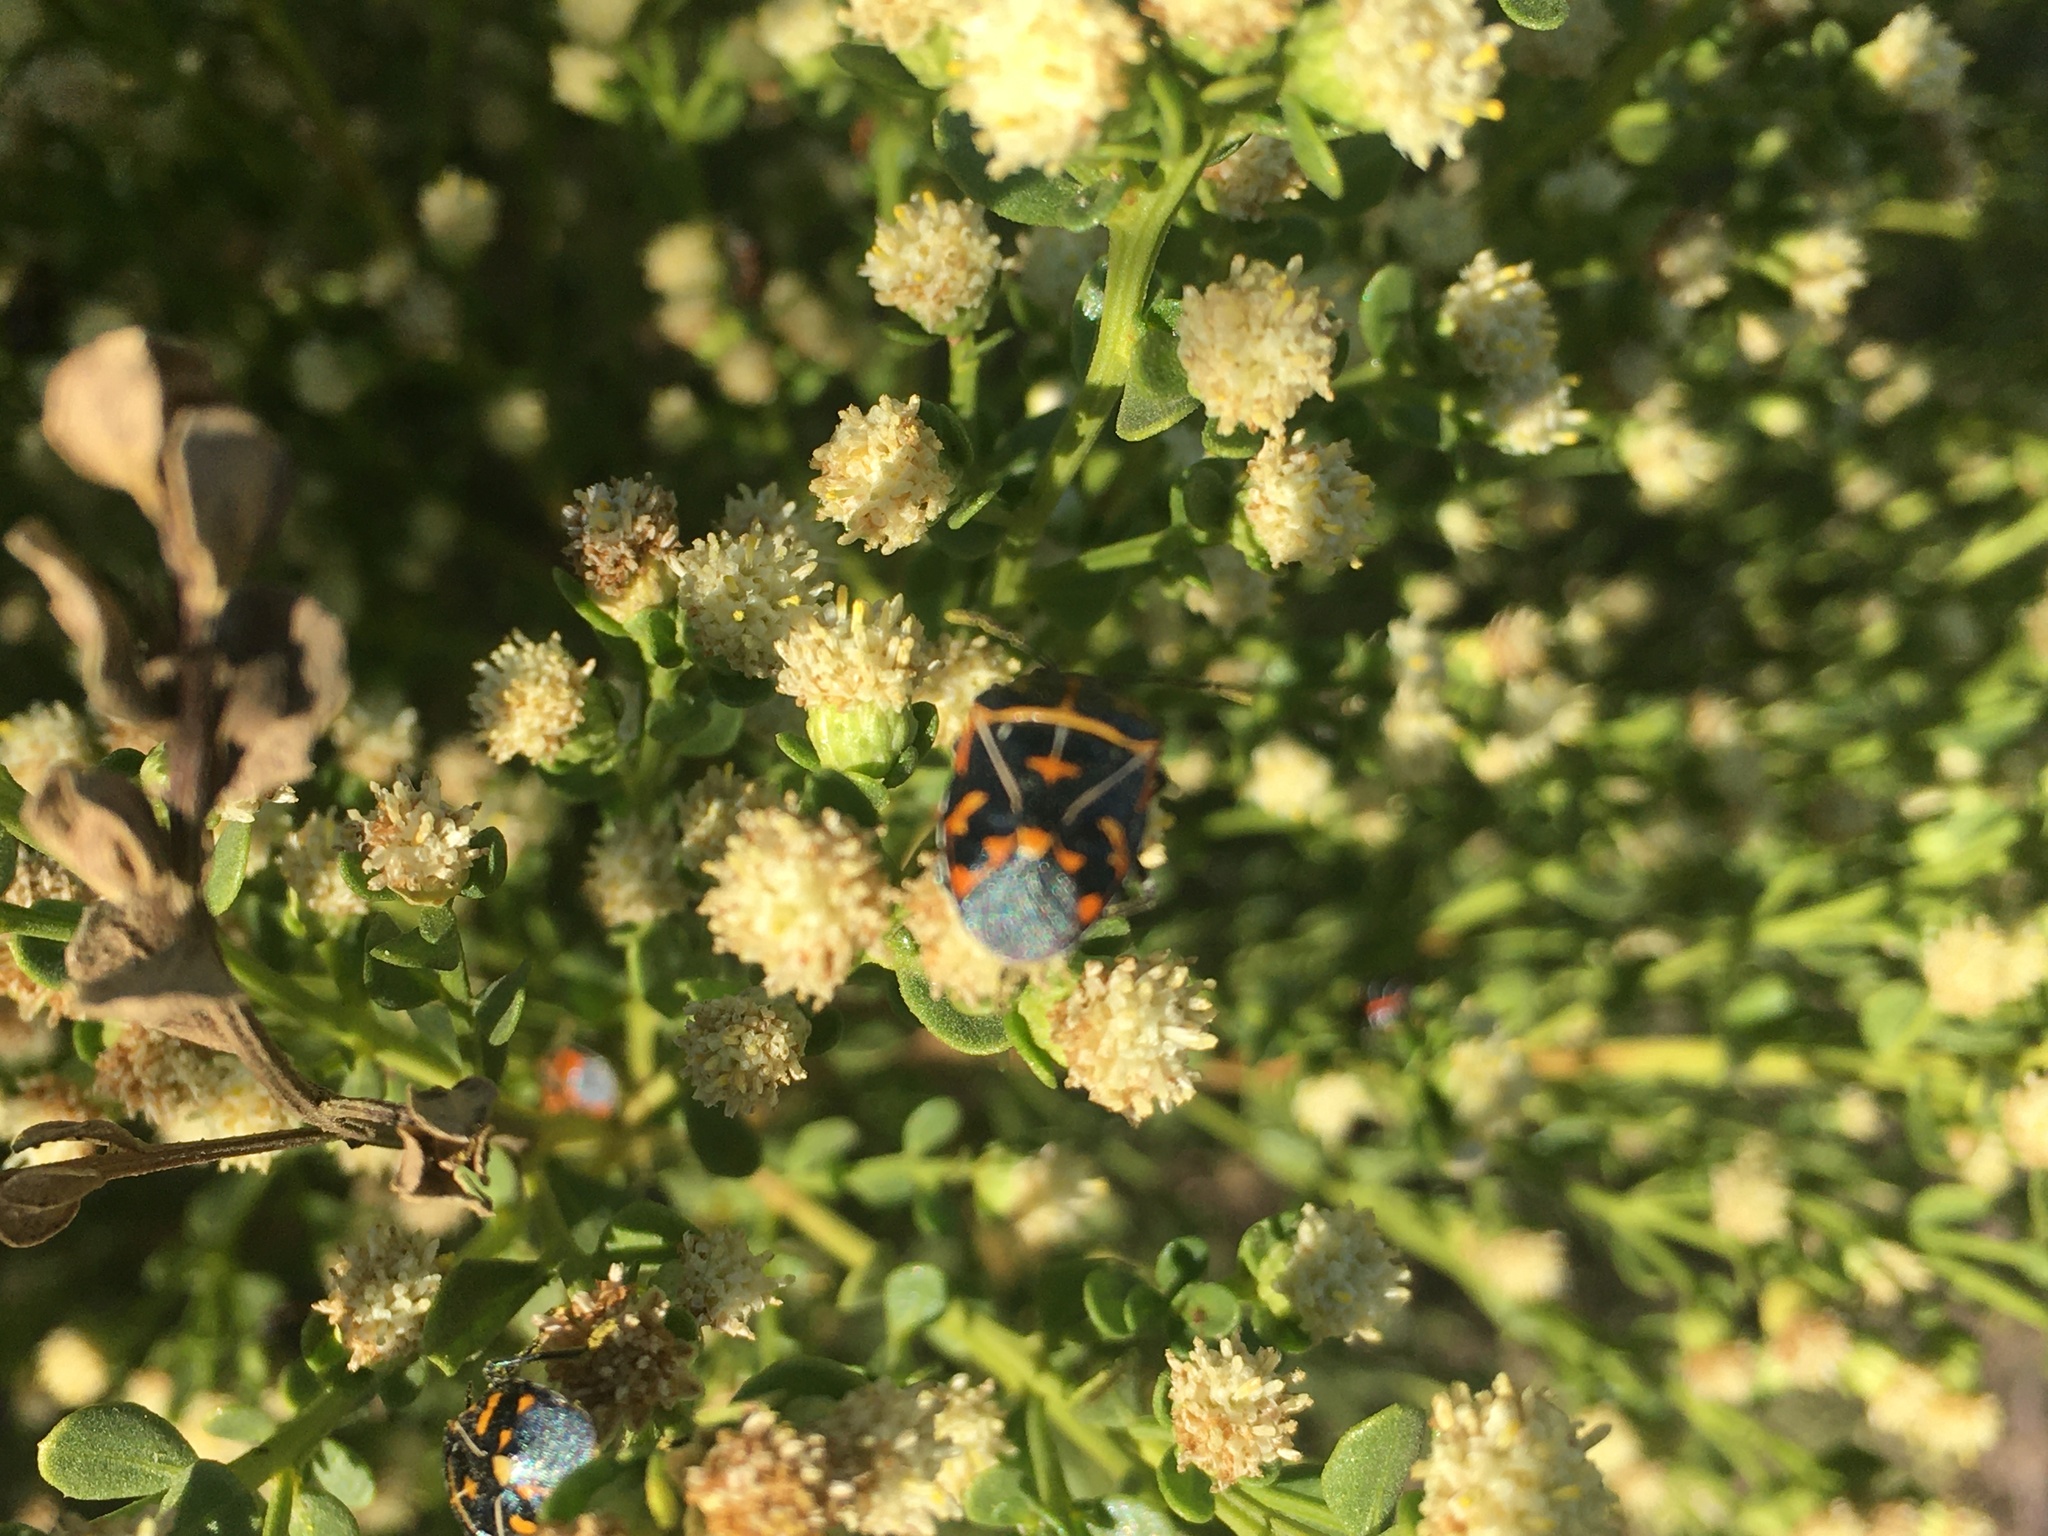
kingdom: Animalia
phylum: Arthropoda
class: Insecta
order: Hemiptera
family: Pentatomidae
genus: Murgantia
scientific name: Murgantia histrionica
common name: Harlequin bug
